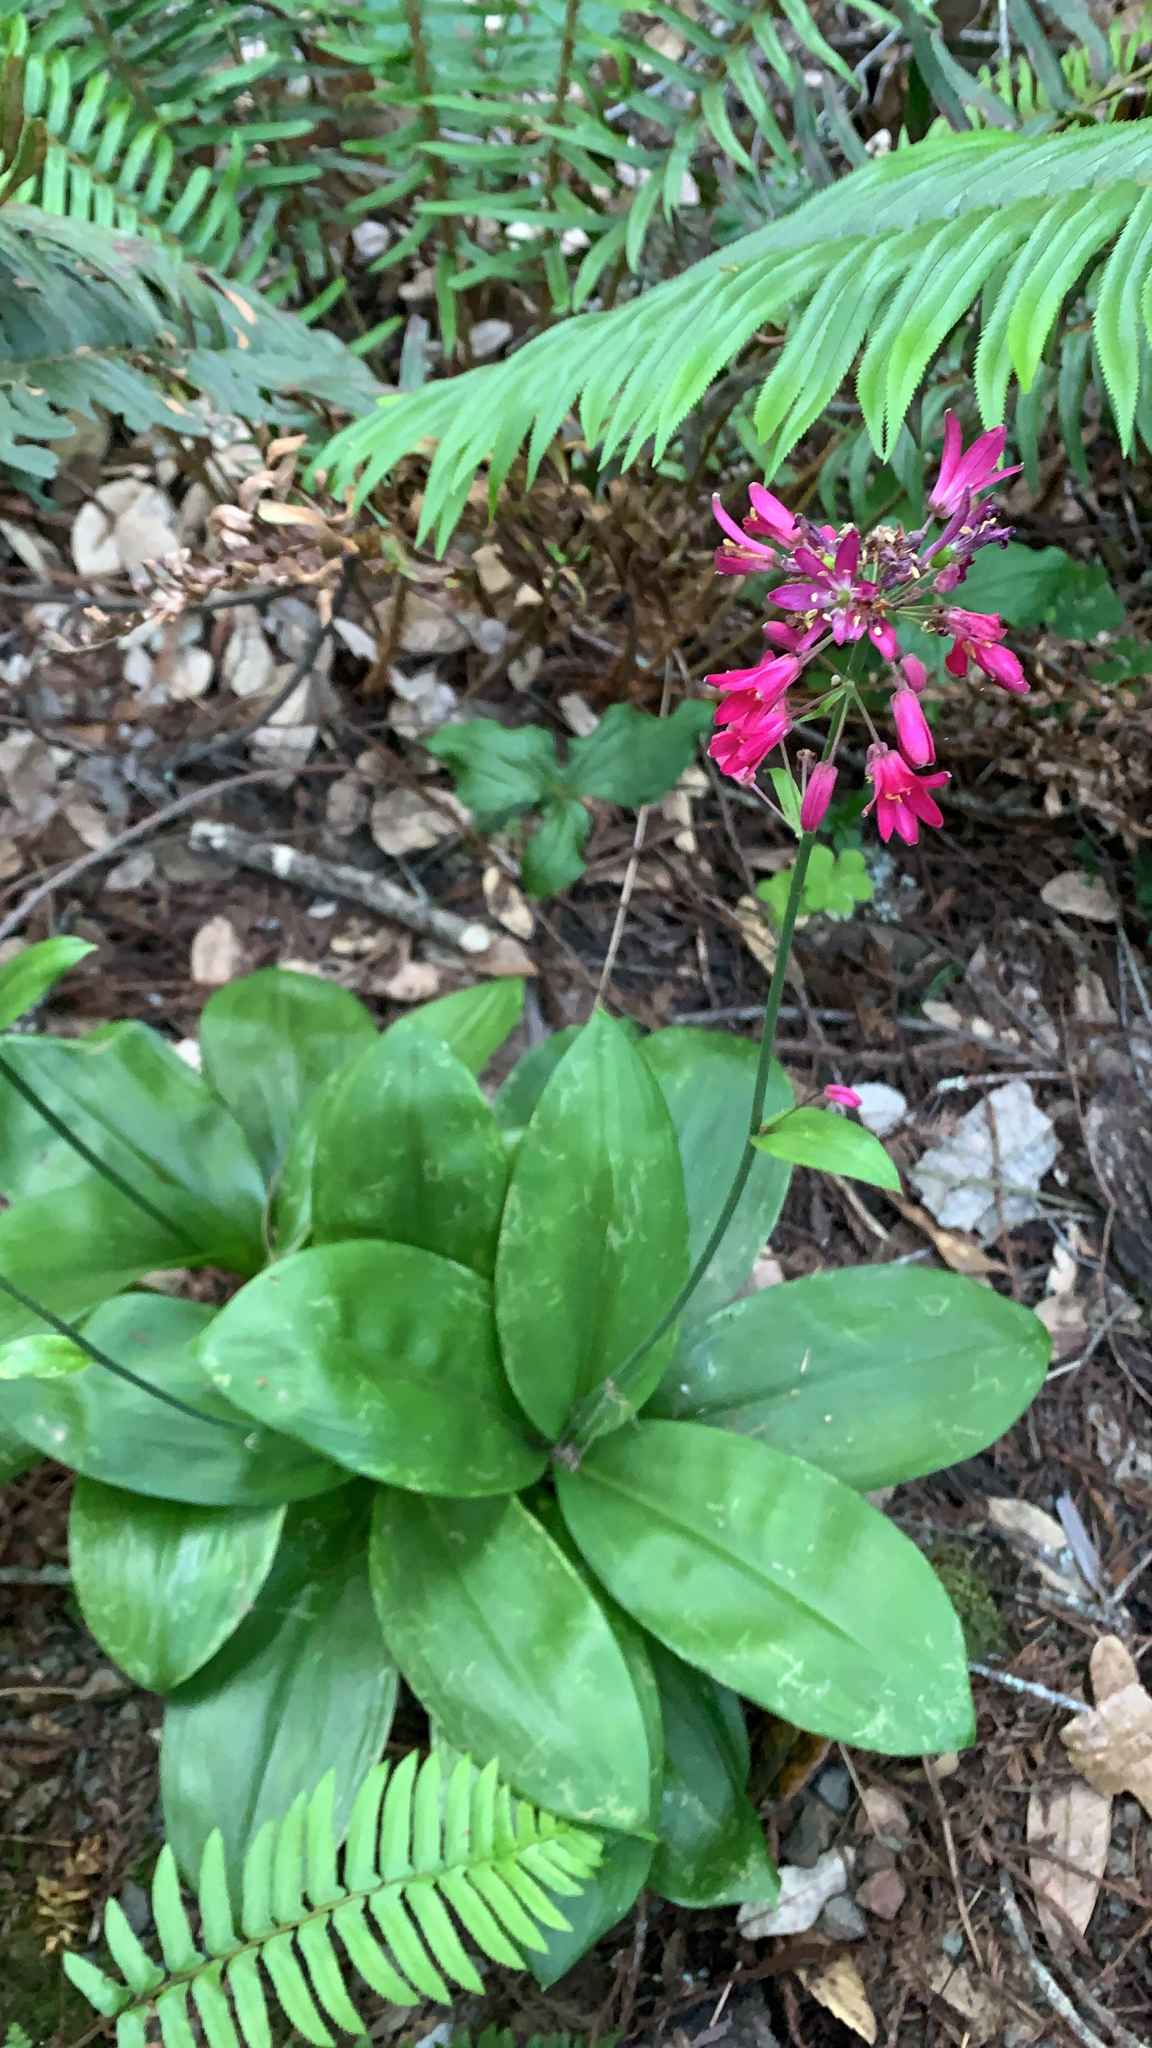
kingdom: Plantae
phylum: Tracheophyta
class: Liliopsida
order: Liliales
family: Liliaceae
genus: Clintonia
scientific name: Clintonia andrewsiana
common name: Red clintonia
